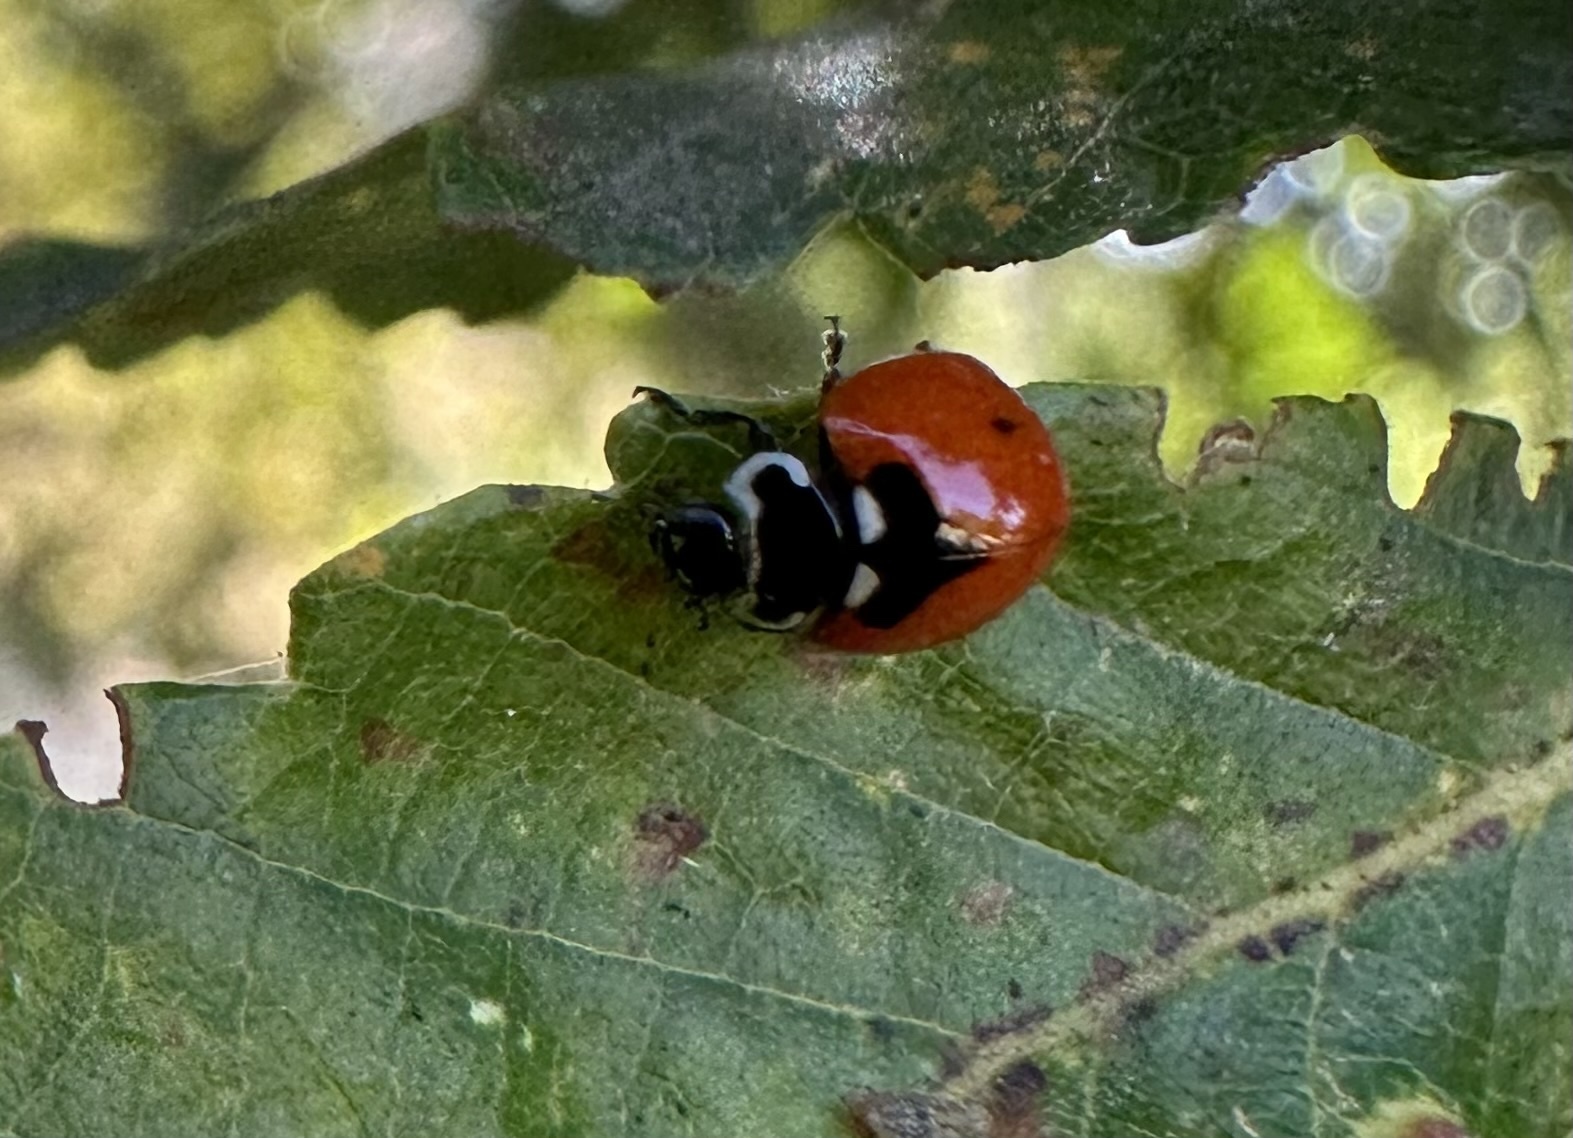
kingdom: Animalia
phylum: Arthropoda
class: Insecta
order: Coleoptera
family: Coccinellidae
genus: Adalia
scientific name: Adalia deficiens
